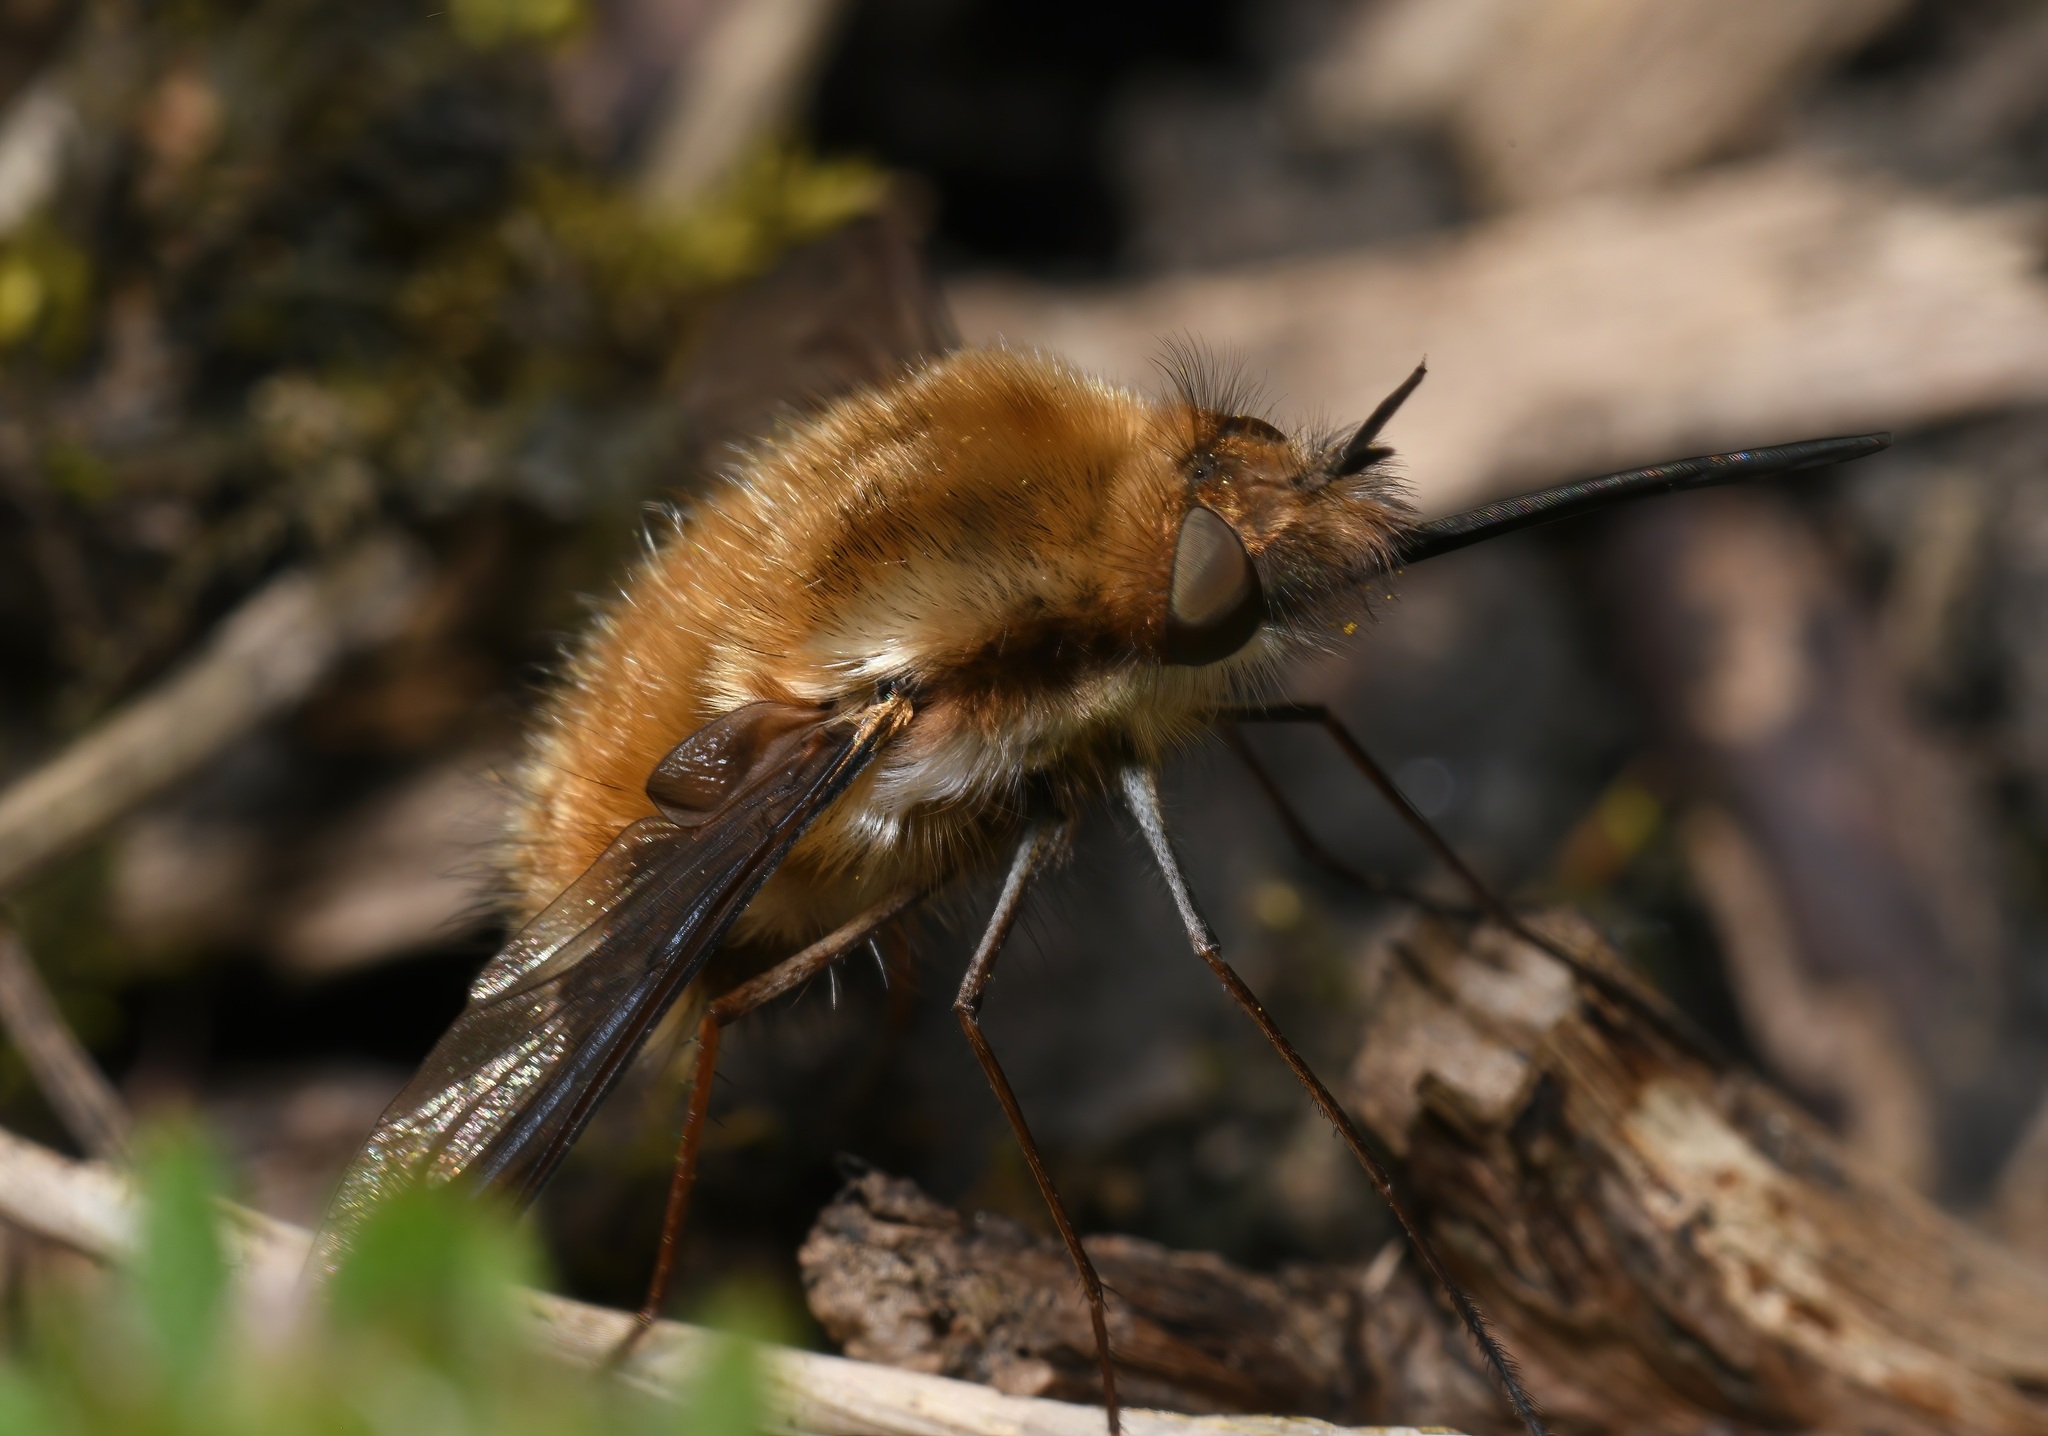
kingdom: Animalia
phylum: Arthropoda
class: Insecta
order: Diptera
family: Bombyliidae
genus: Bombylius
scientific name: Bombylius major
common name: Bee fly
